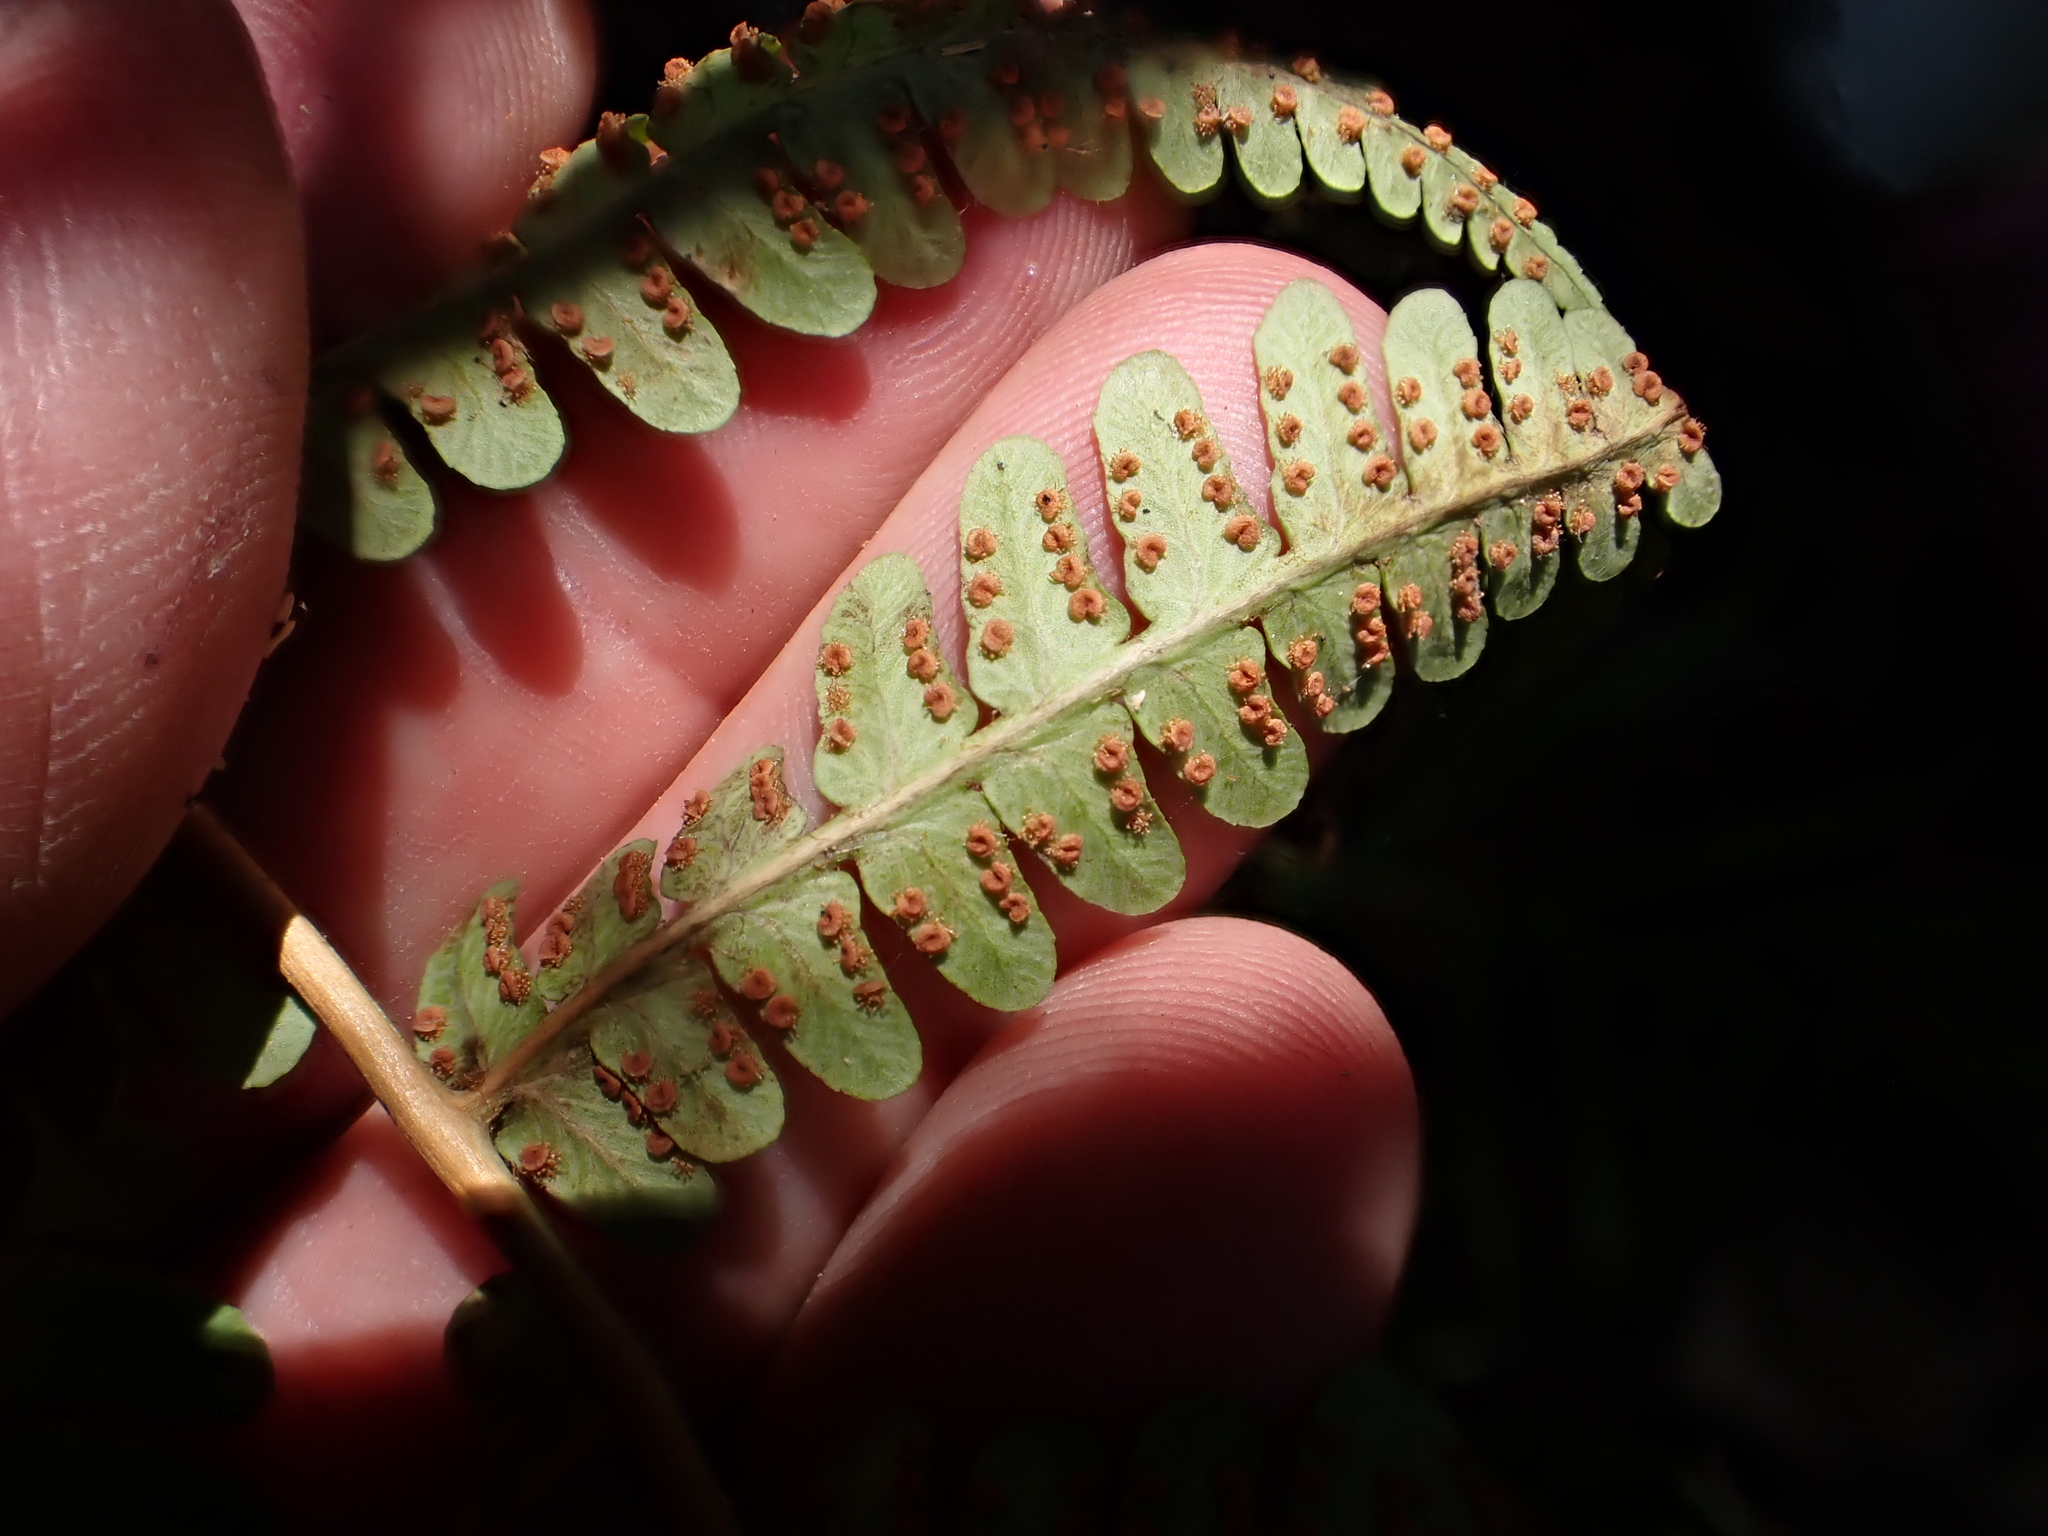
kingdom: Plantae
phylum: Tracheophyta
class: Polypodiopsida
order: Polypodiales
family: Dryopteridaceae
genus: Dryopteris
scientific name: Dryopteris marginalis
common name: Marginal wood fern
